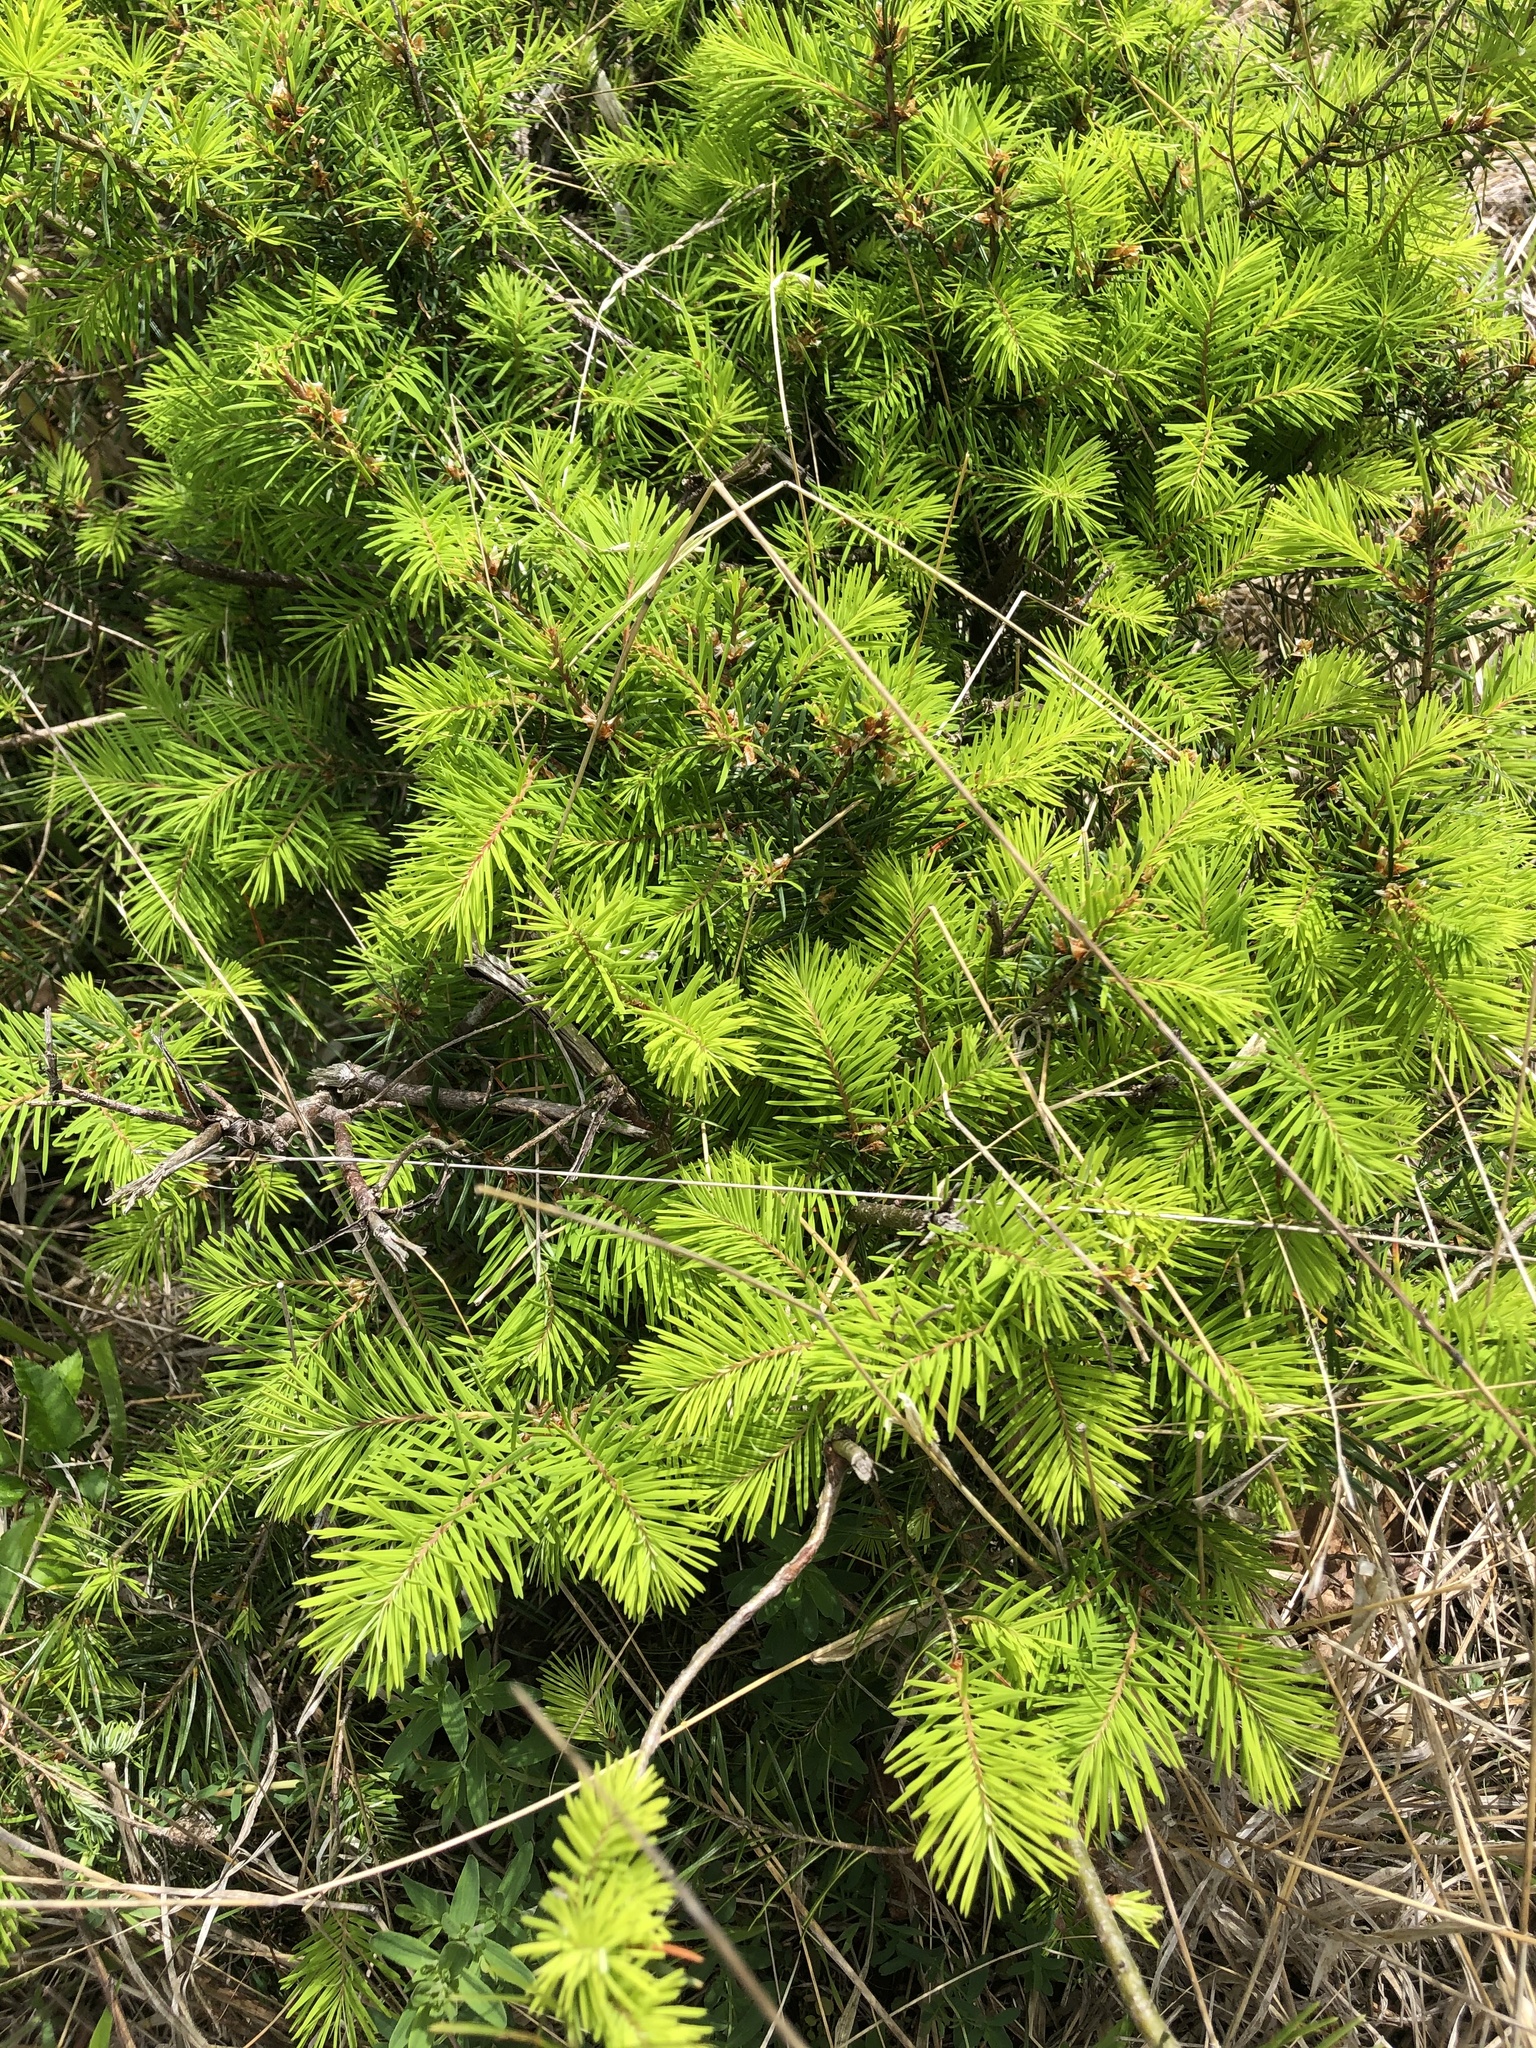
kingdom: Plantae
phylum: Tracheophyta
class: Pinopsida
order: Pinales
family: Pinaceae
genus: Pseudotsuga
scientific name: Pseudotsuga menziesii
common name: Douglas fir
